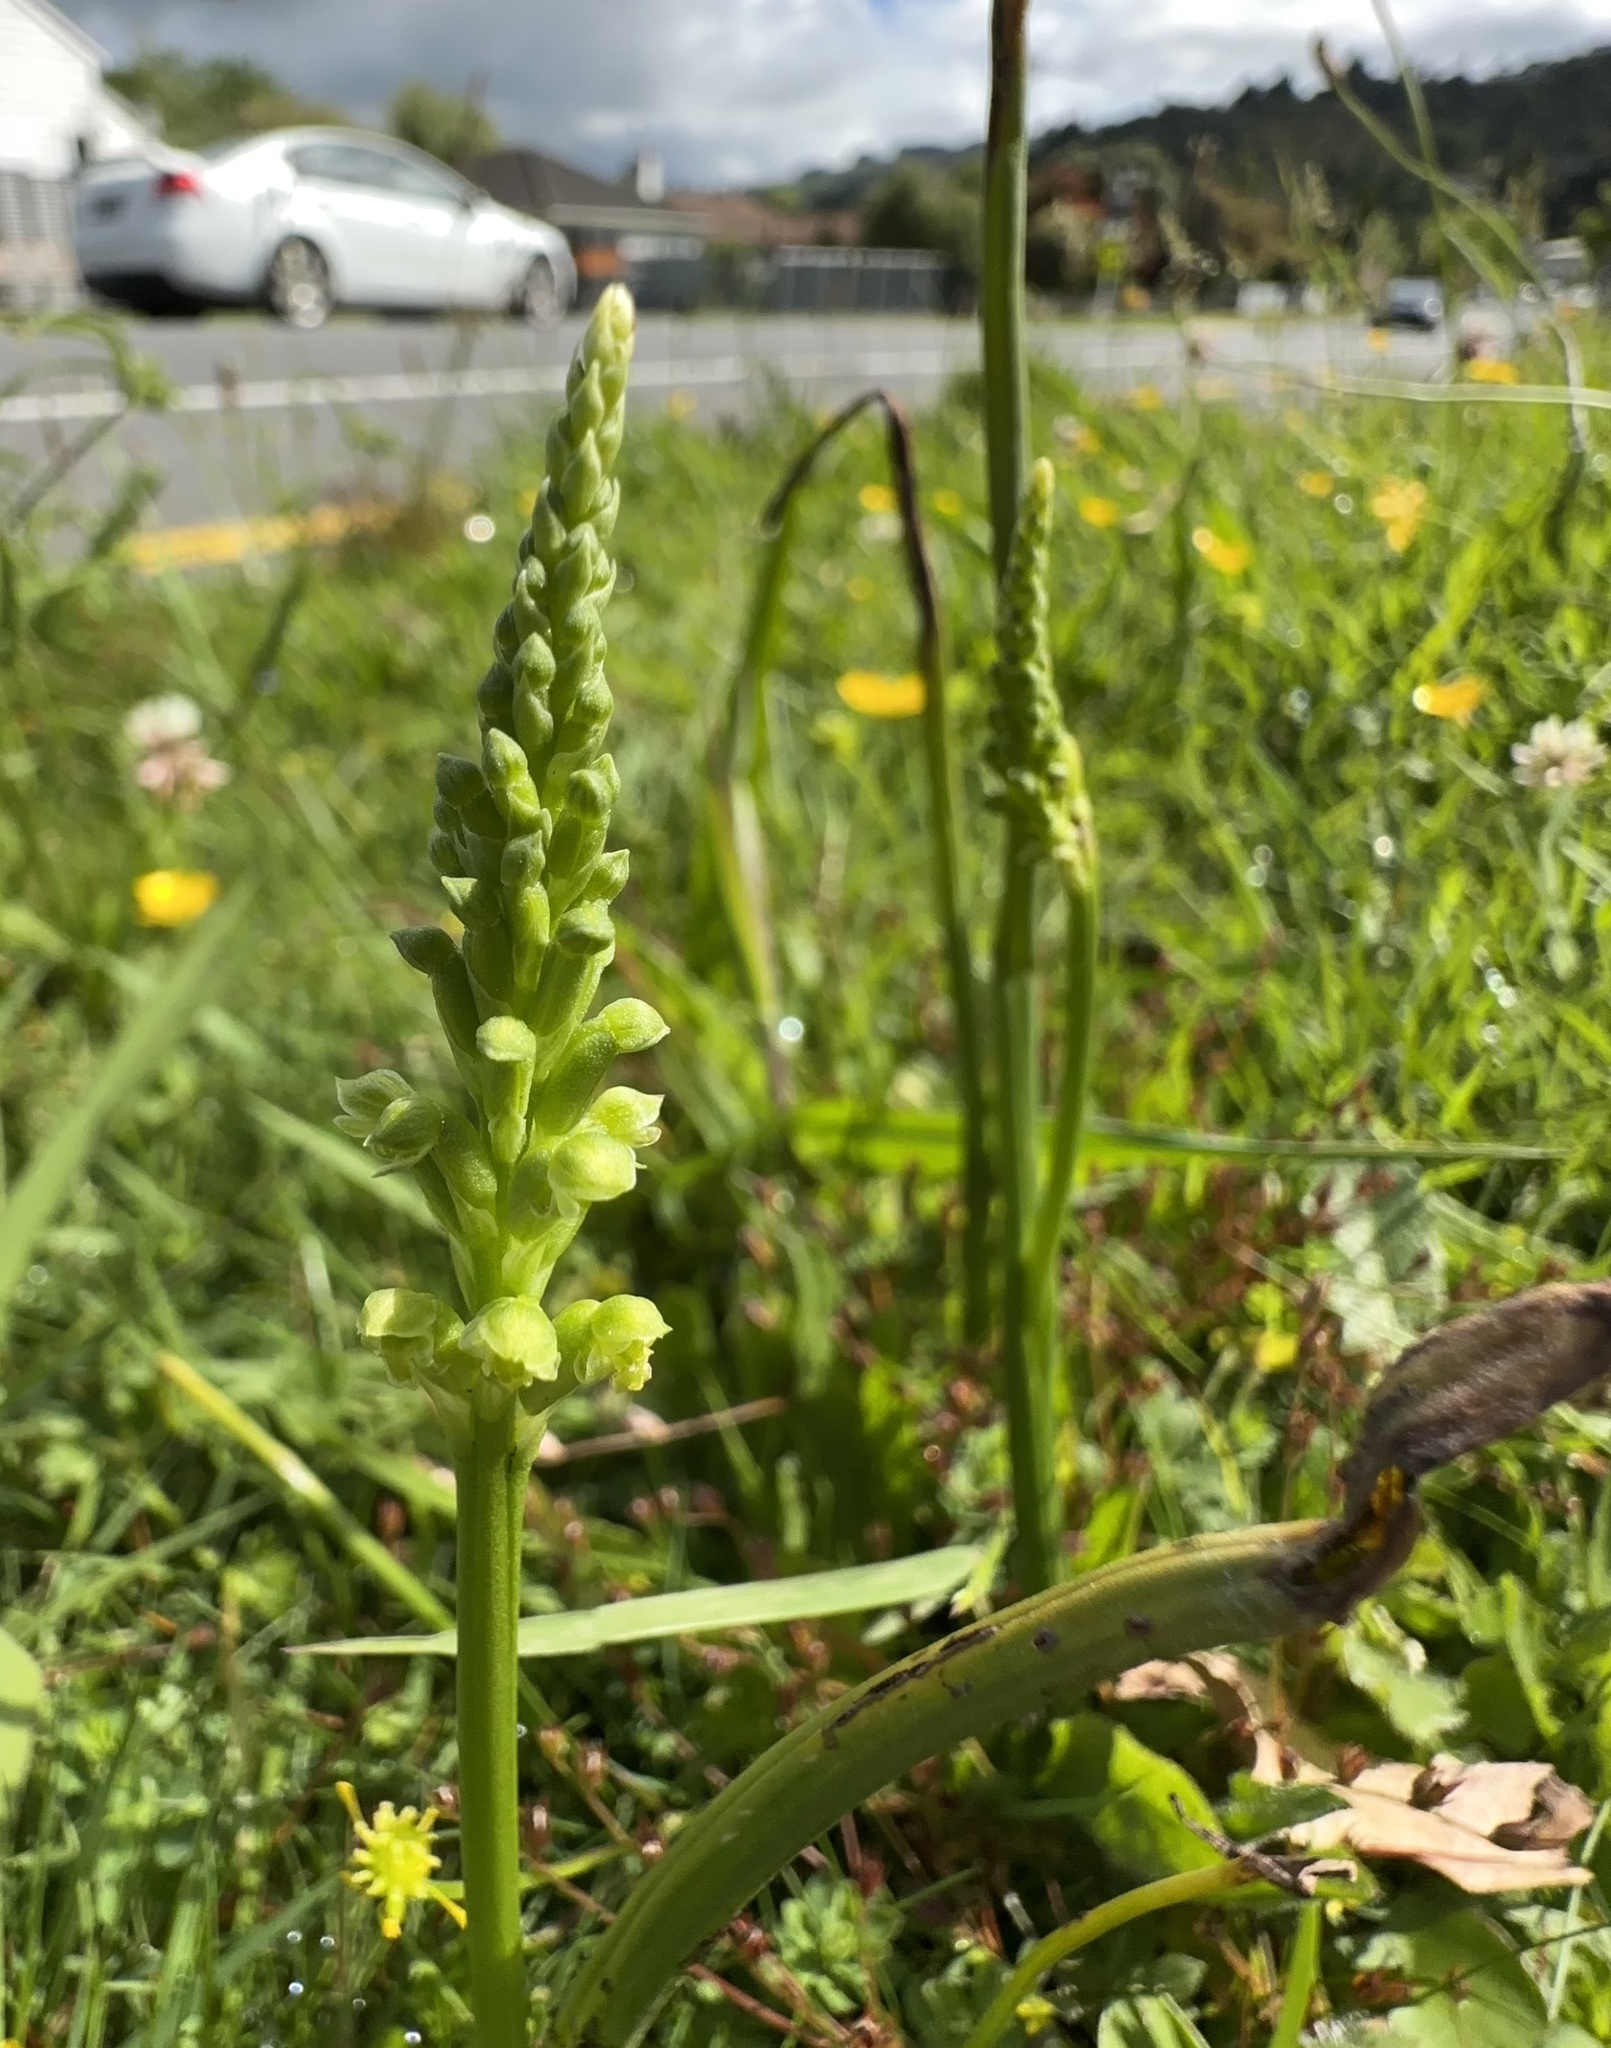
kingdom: Plantae
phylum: Tracheophyta
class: Liliopsida
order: Asparagales
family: Orchidaceae
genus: Microtis
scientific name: Microtis unifolia
